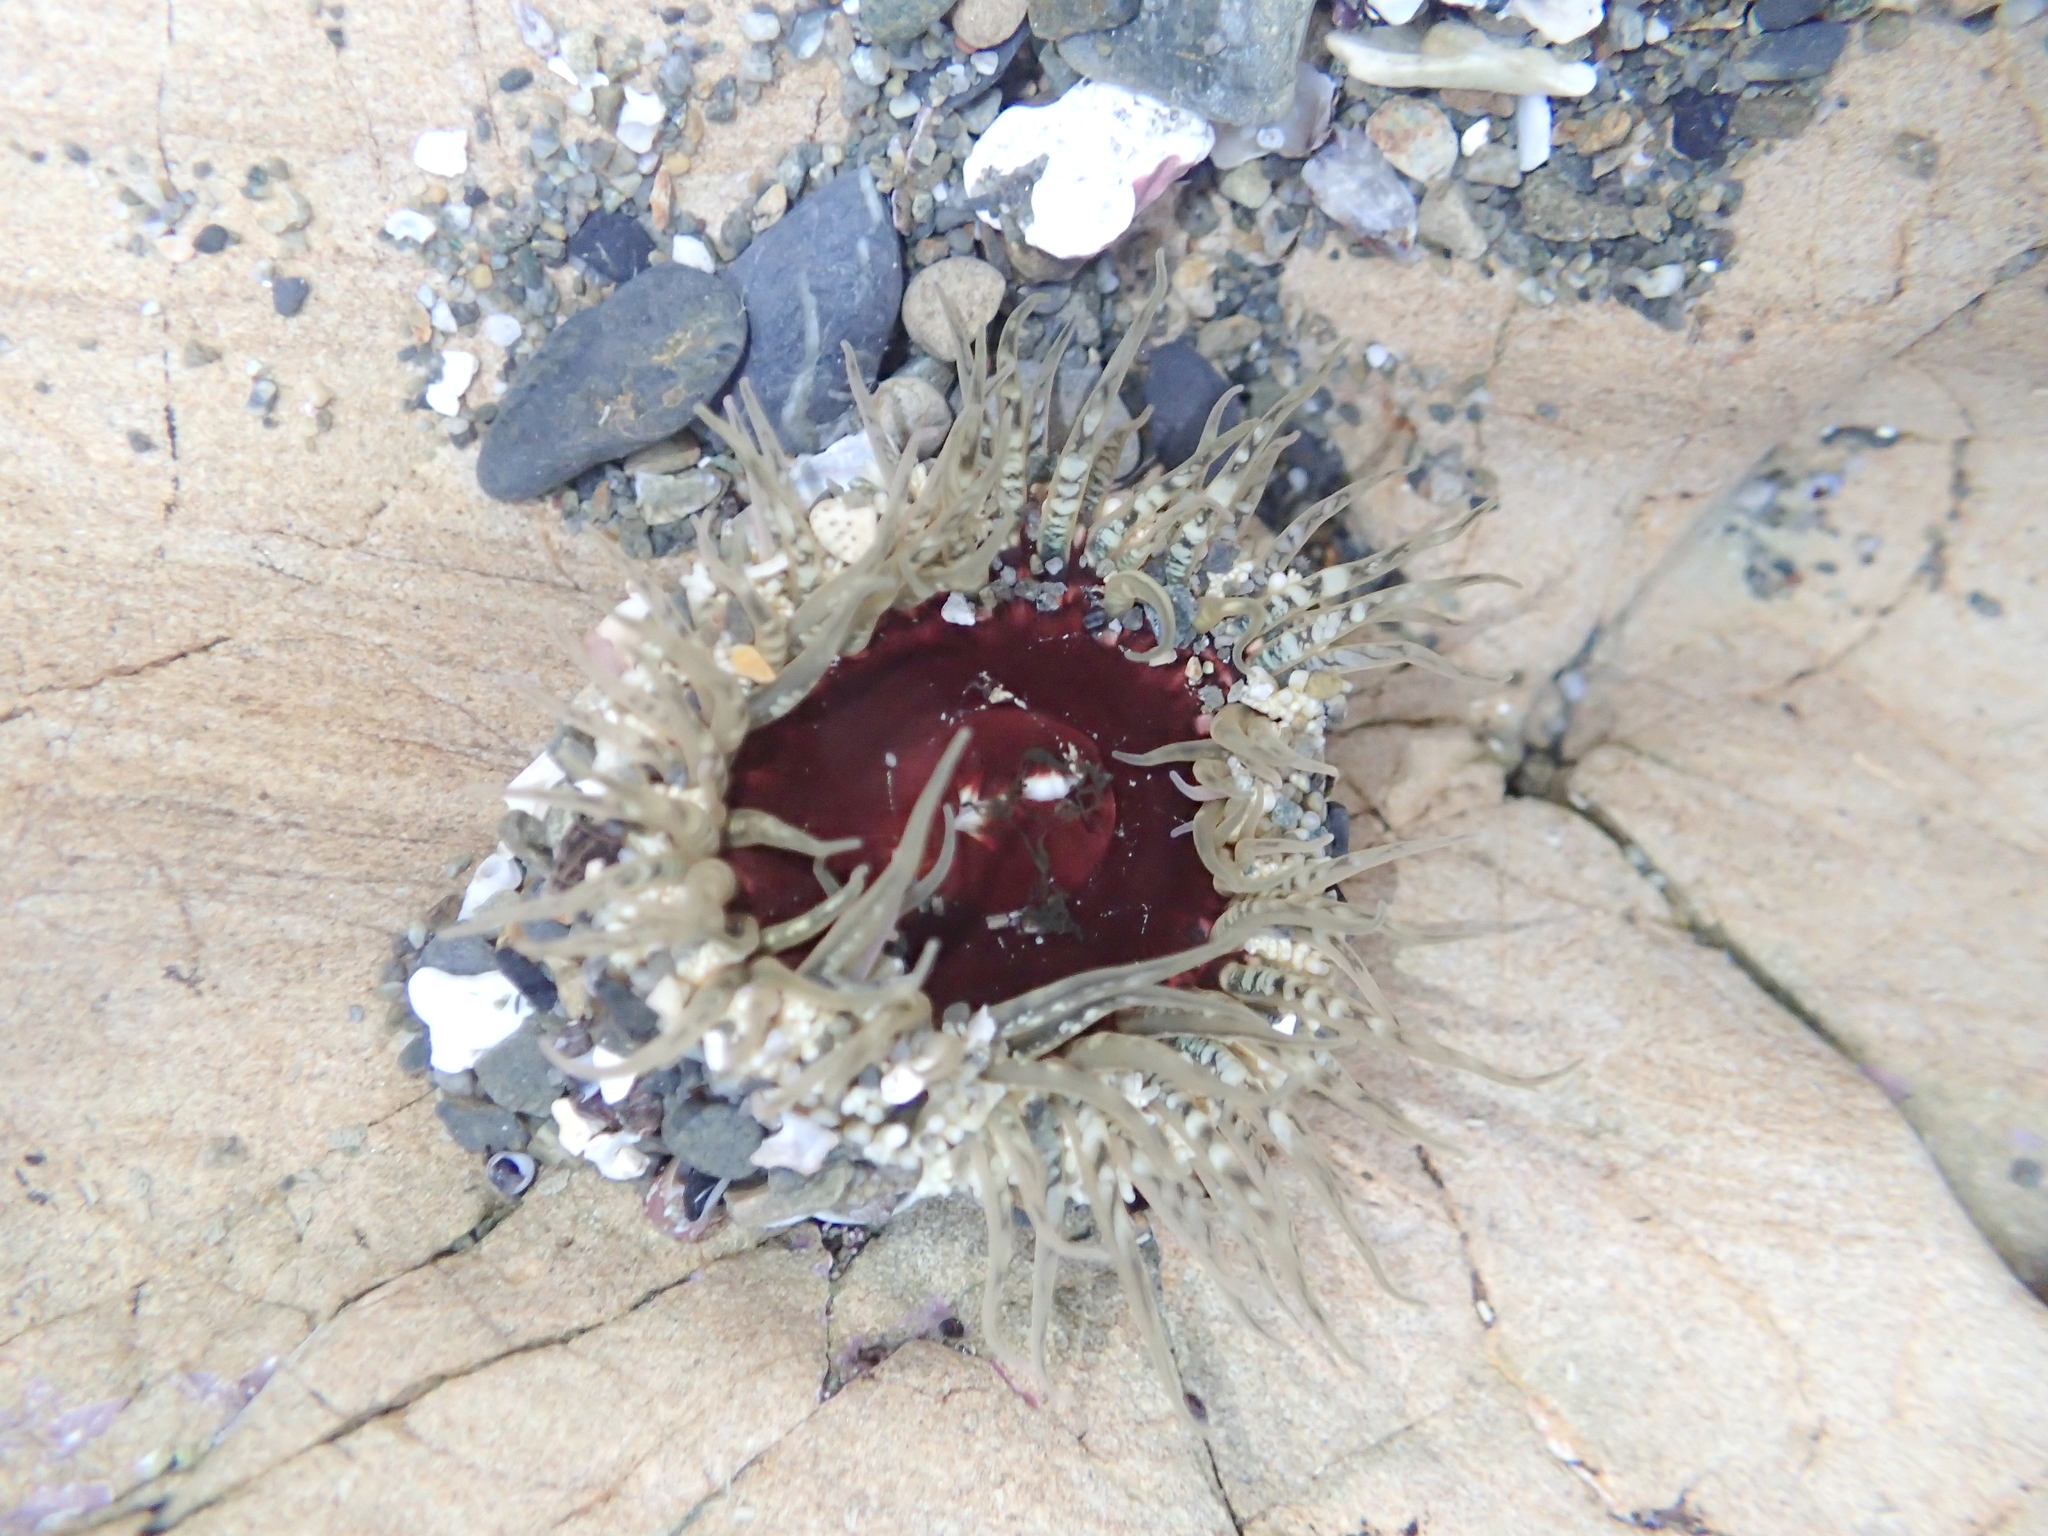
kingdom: Animalia
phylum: Cnidaria
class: Anthozoa
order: Actiniaria
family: Actiniidae
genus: Oulactis
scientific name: Oulactis muscosa
